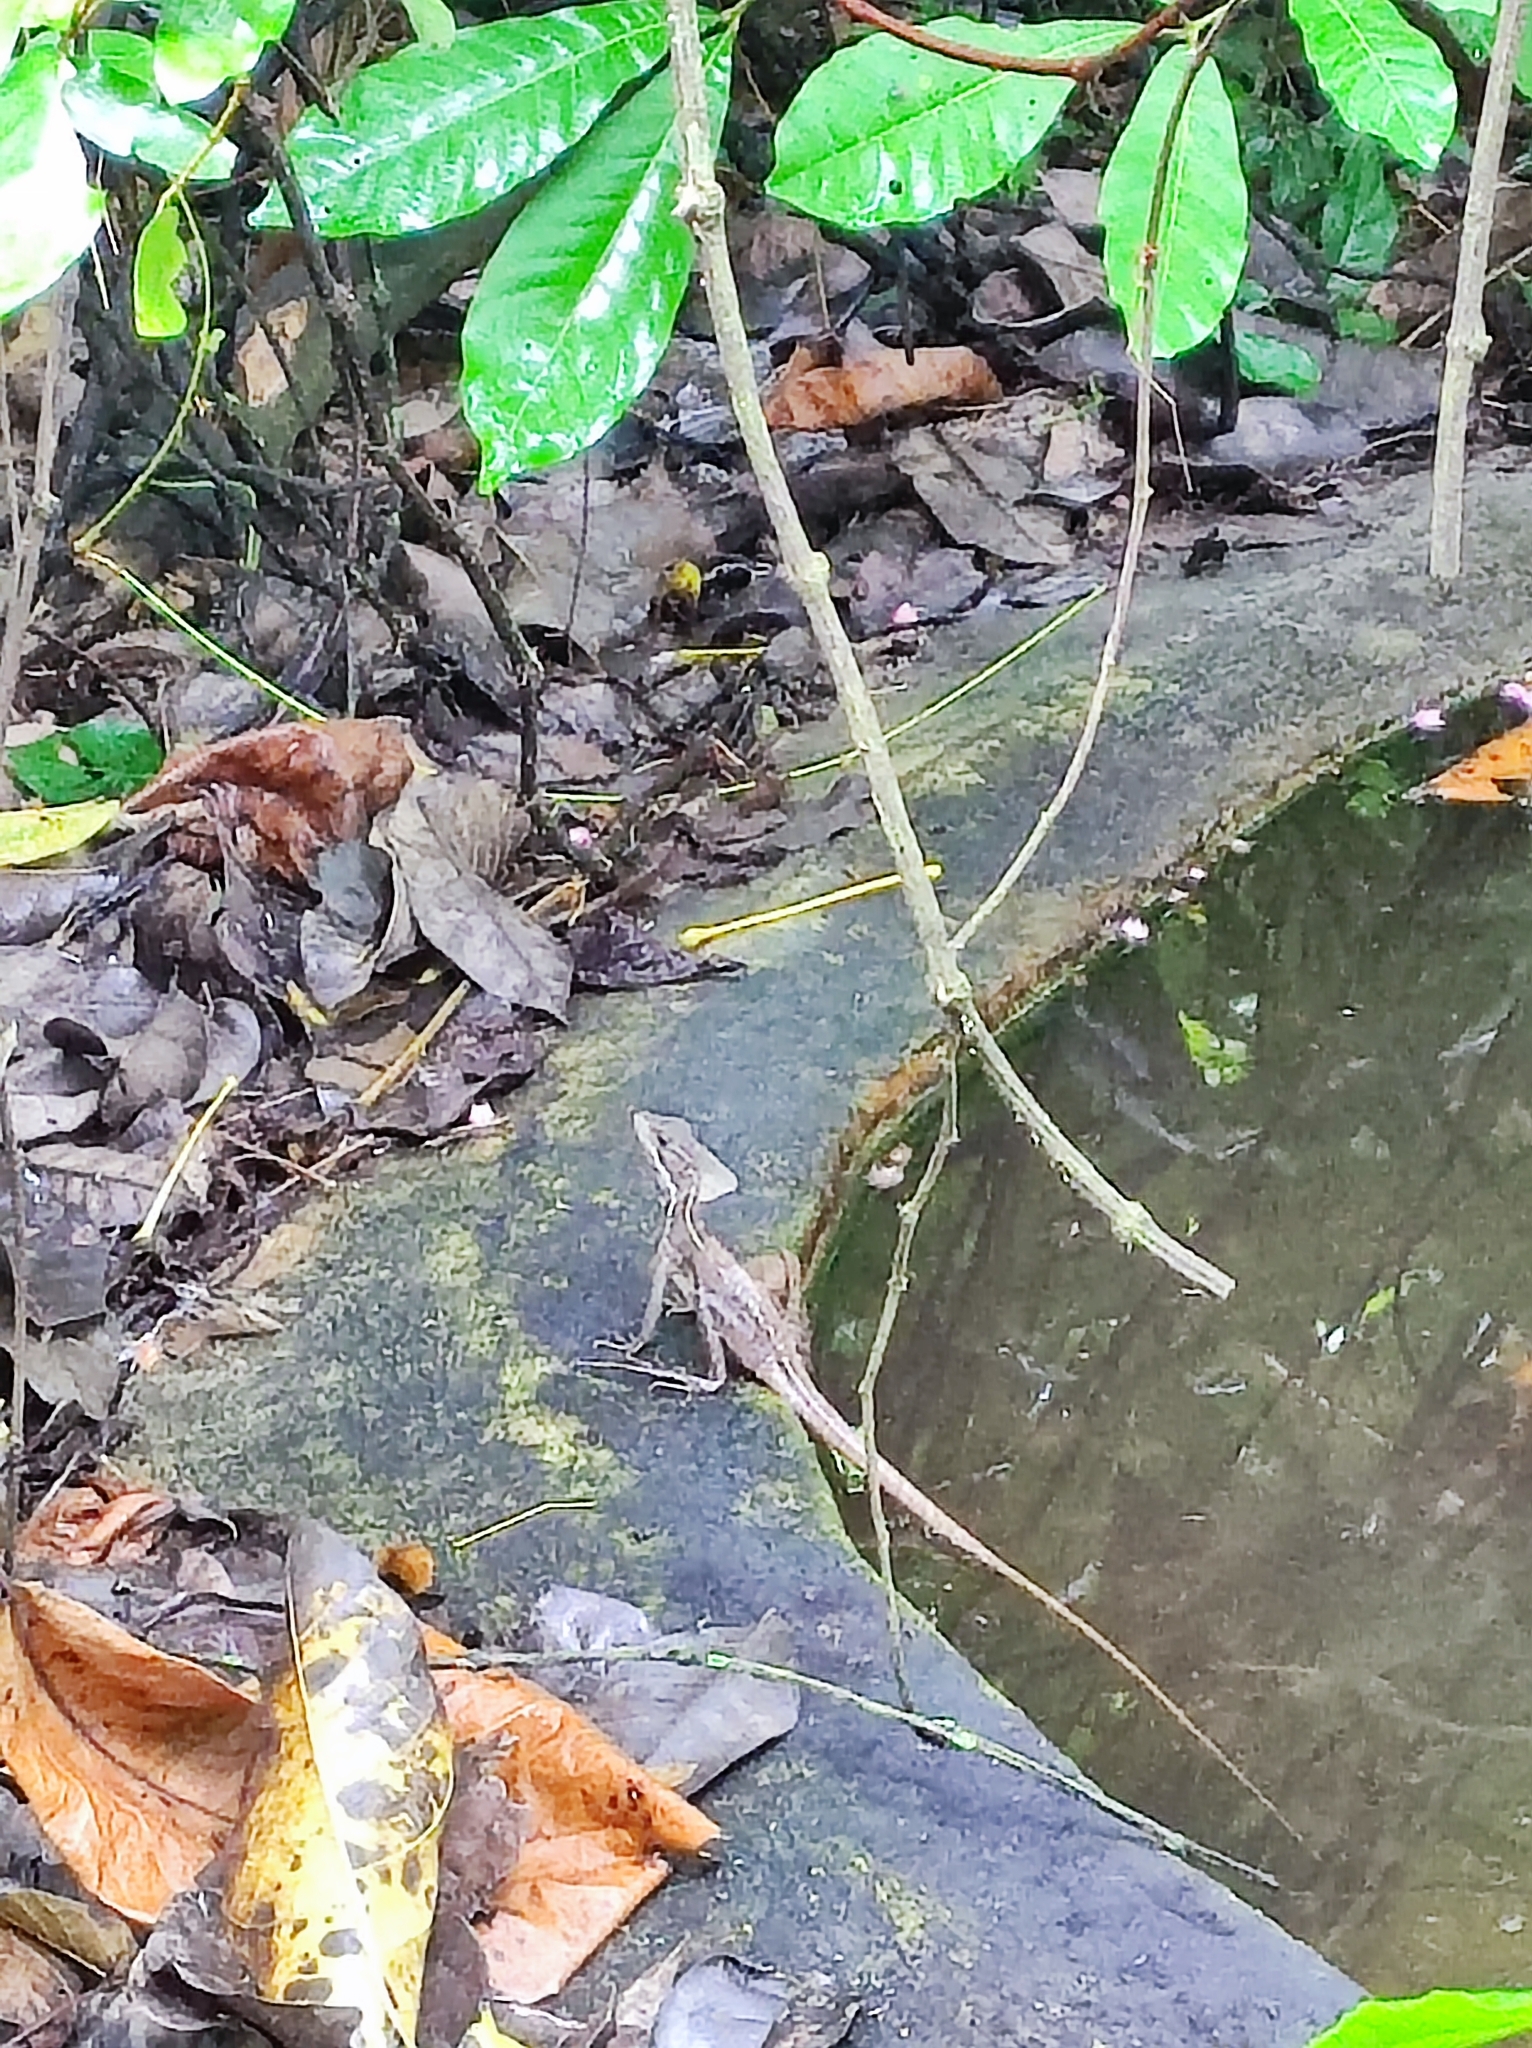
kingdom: Animalia
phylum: Chordata
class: Squamata
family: Corytophanidae
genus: Basiliscus
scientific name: Basiliscus basiliscus
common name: Common basilisk
